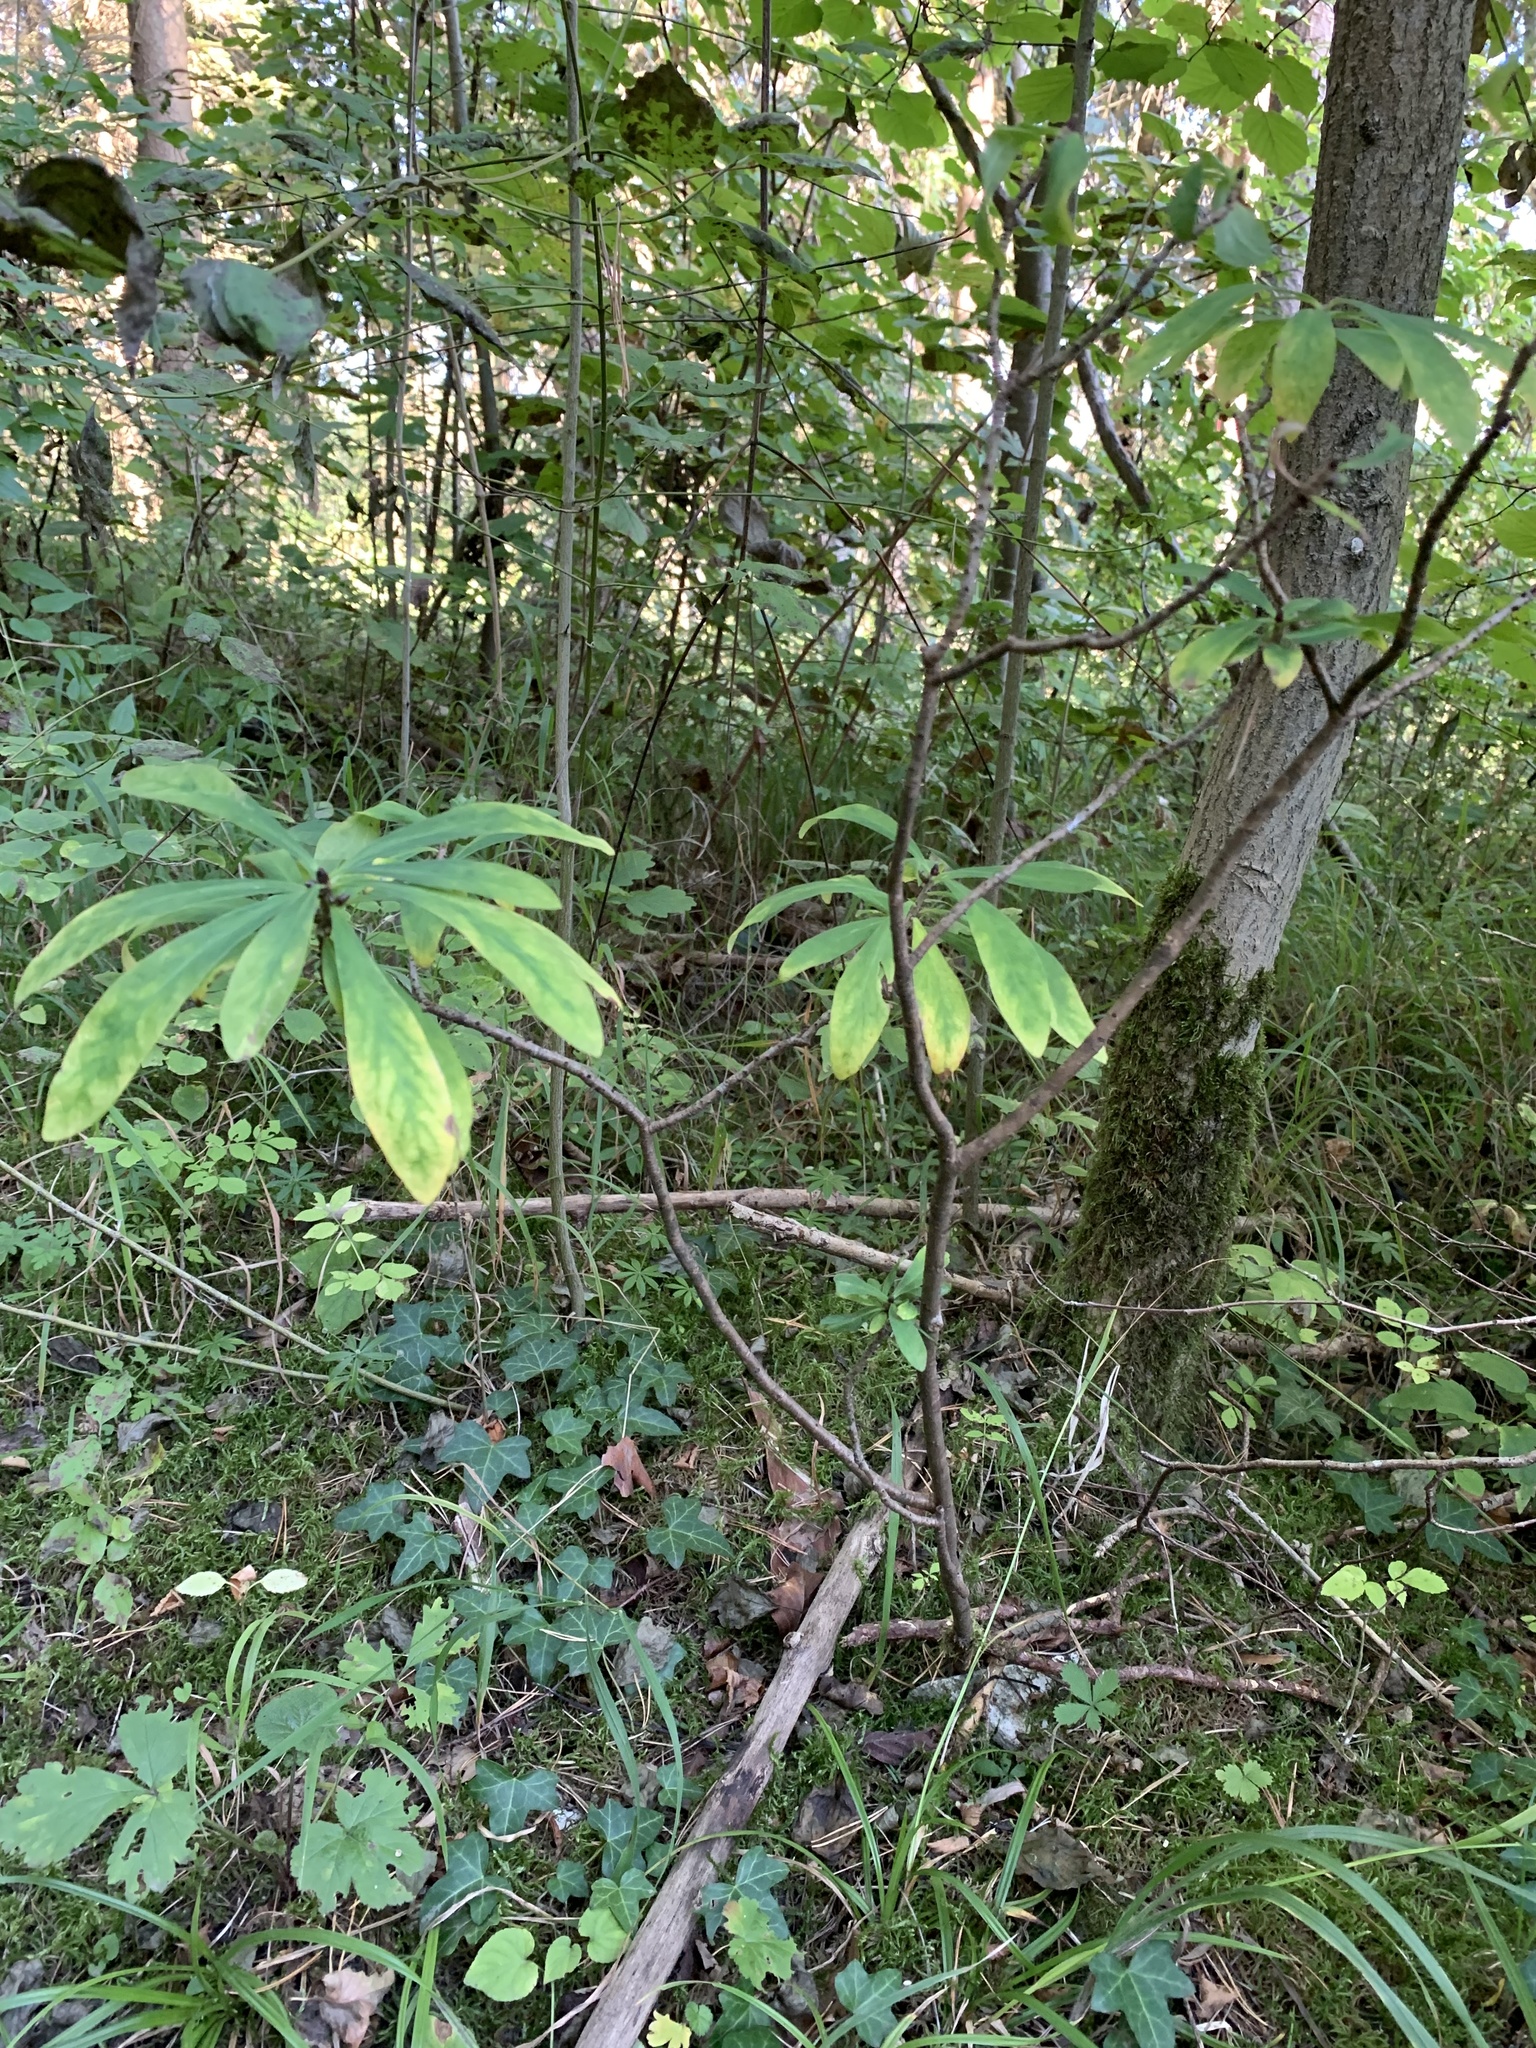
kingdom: Plantae
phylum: Tracheophyta
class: Magnoliopsida
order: Malvales
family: Thymelaeaceae
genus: Daphne
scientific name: Daphne mezereum
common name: Mezereon
